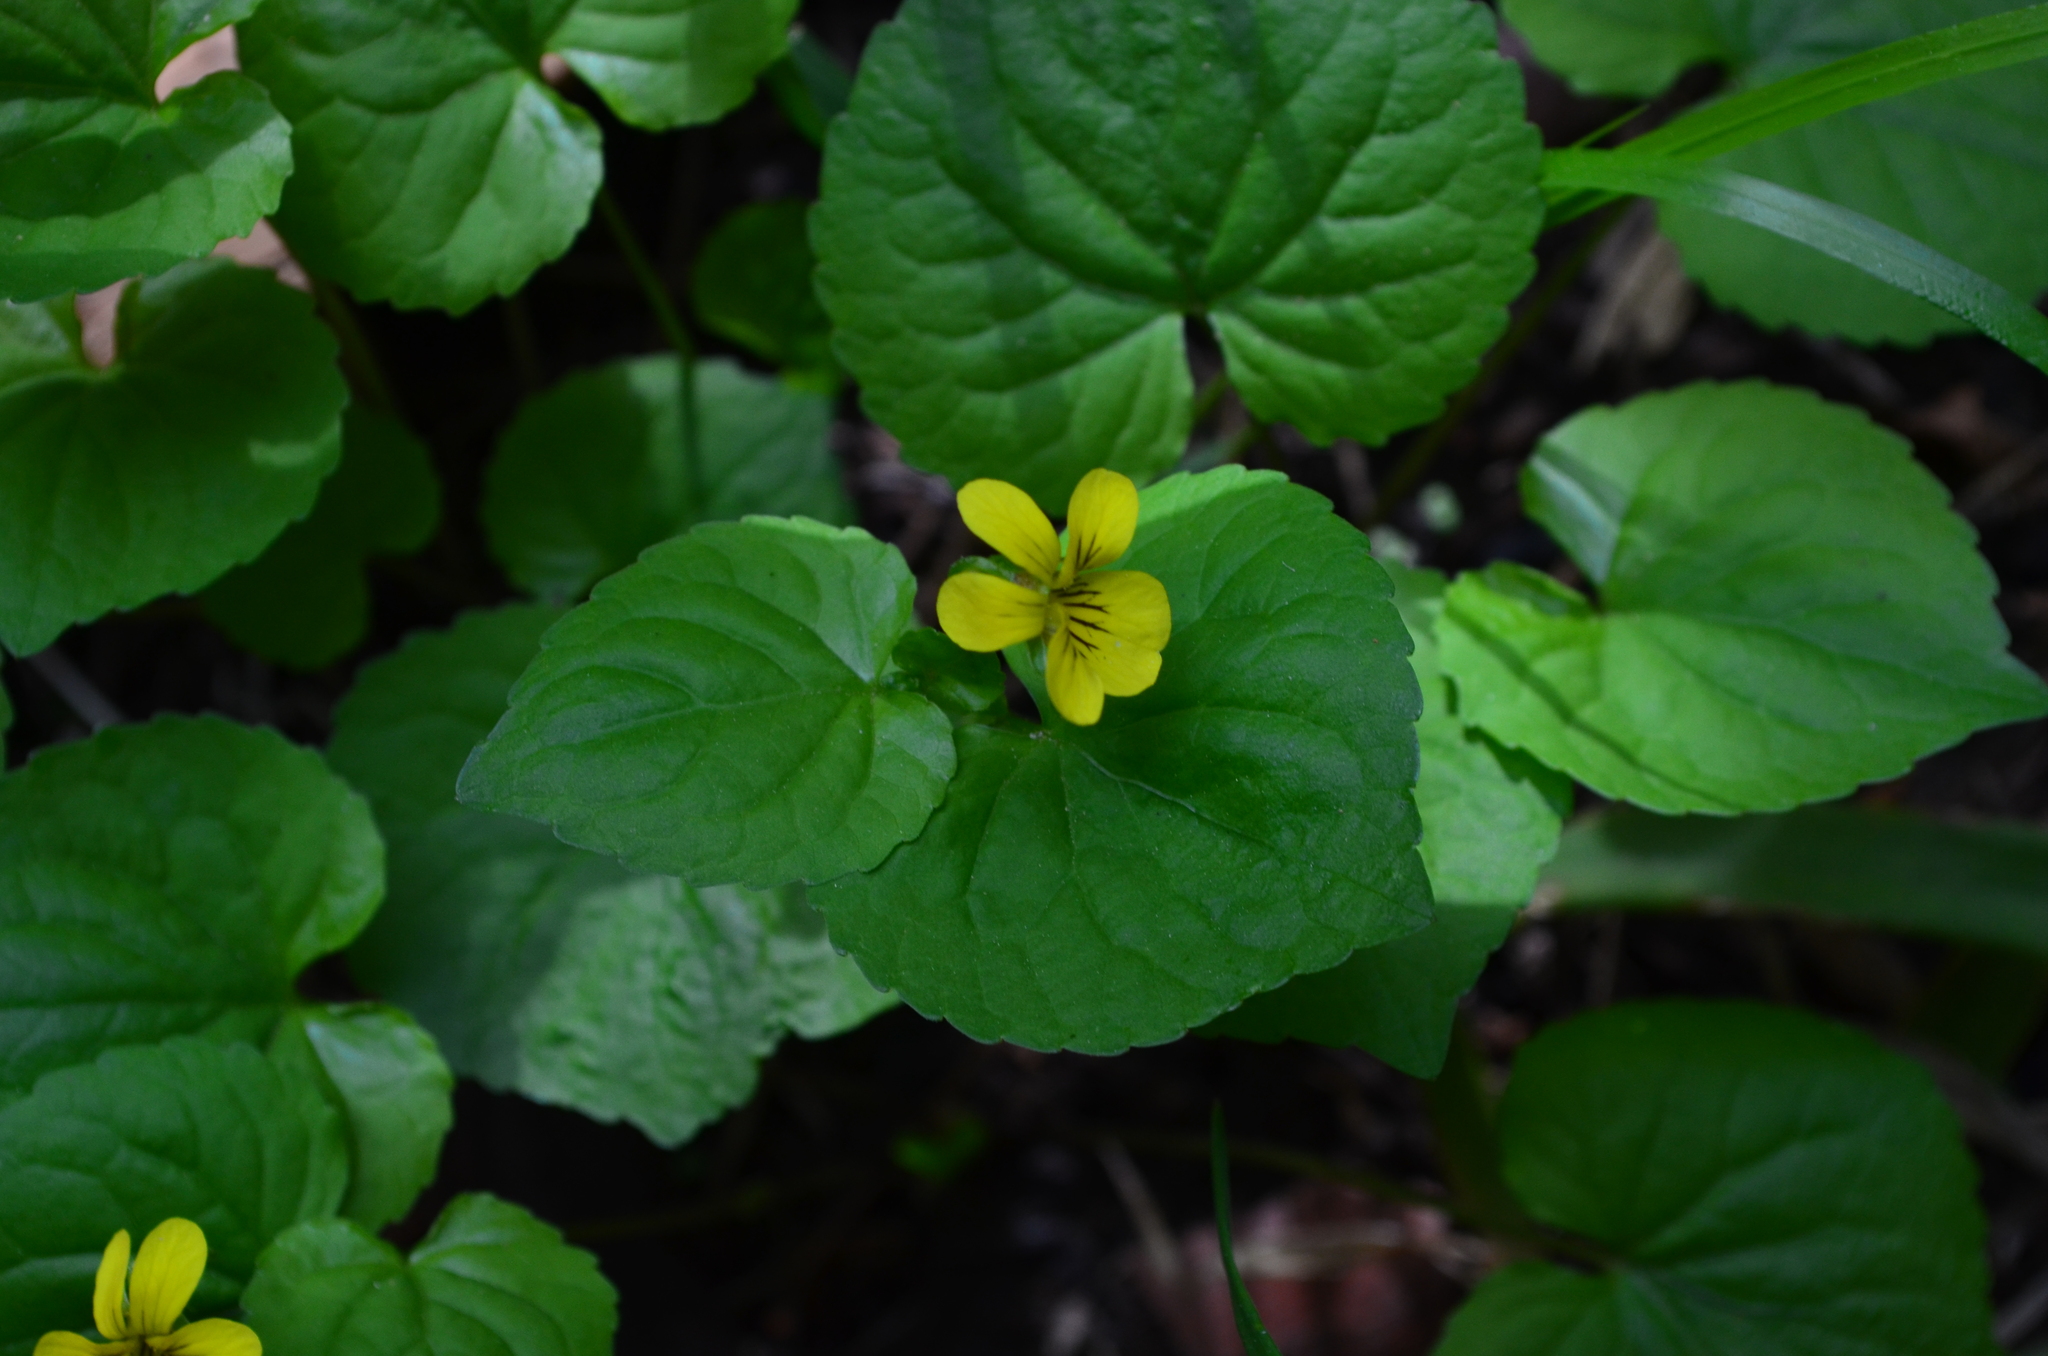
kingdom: Plantae
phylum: Tracheophyta
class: Magnoliopsida
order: Malpighiales
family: Violaceae
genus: Viola
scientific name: Viola glabella
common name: Stream violet
